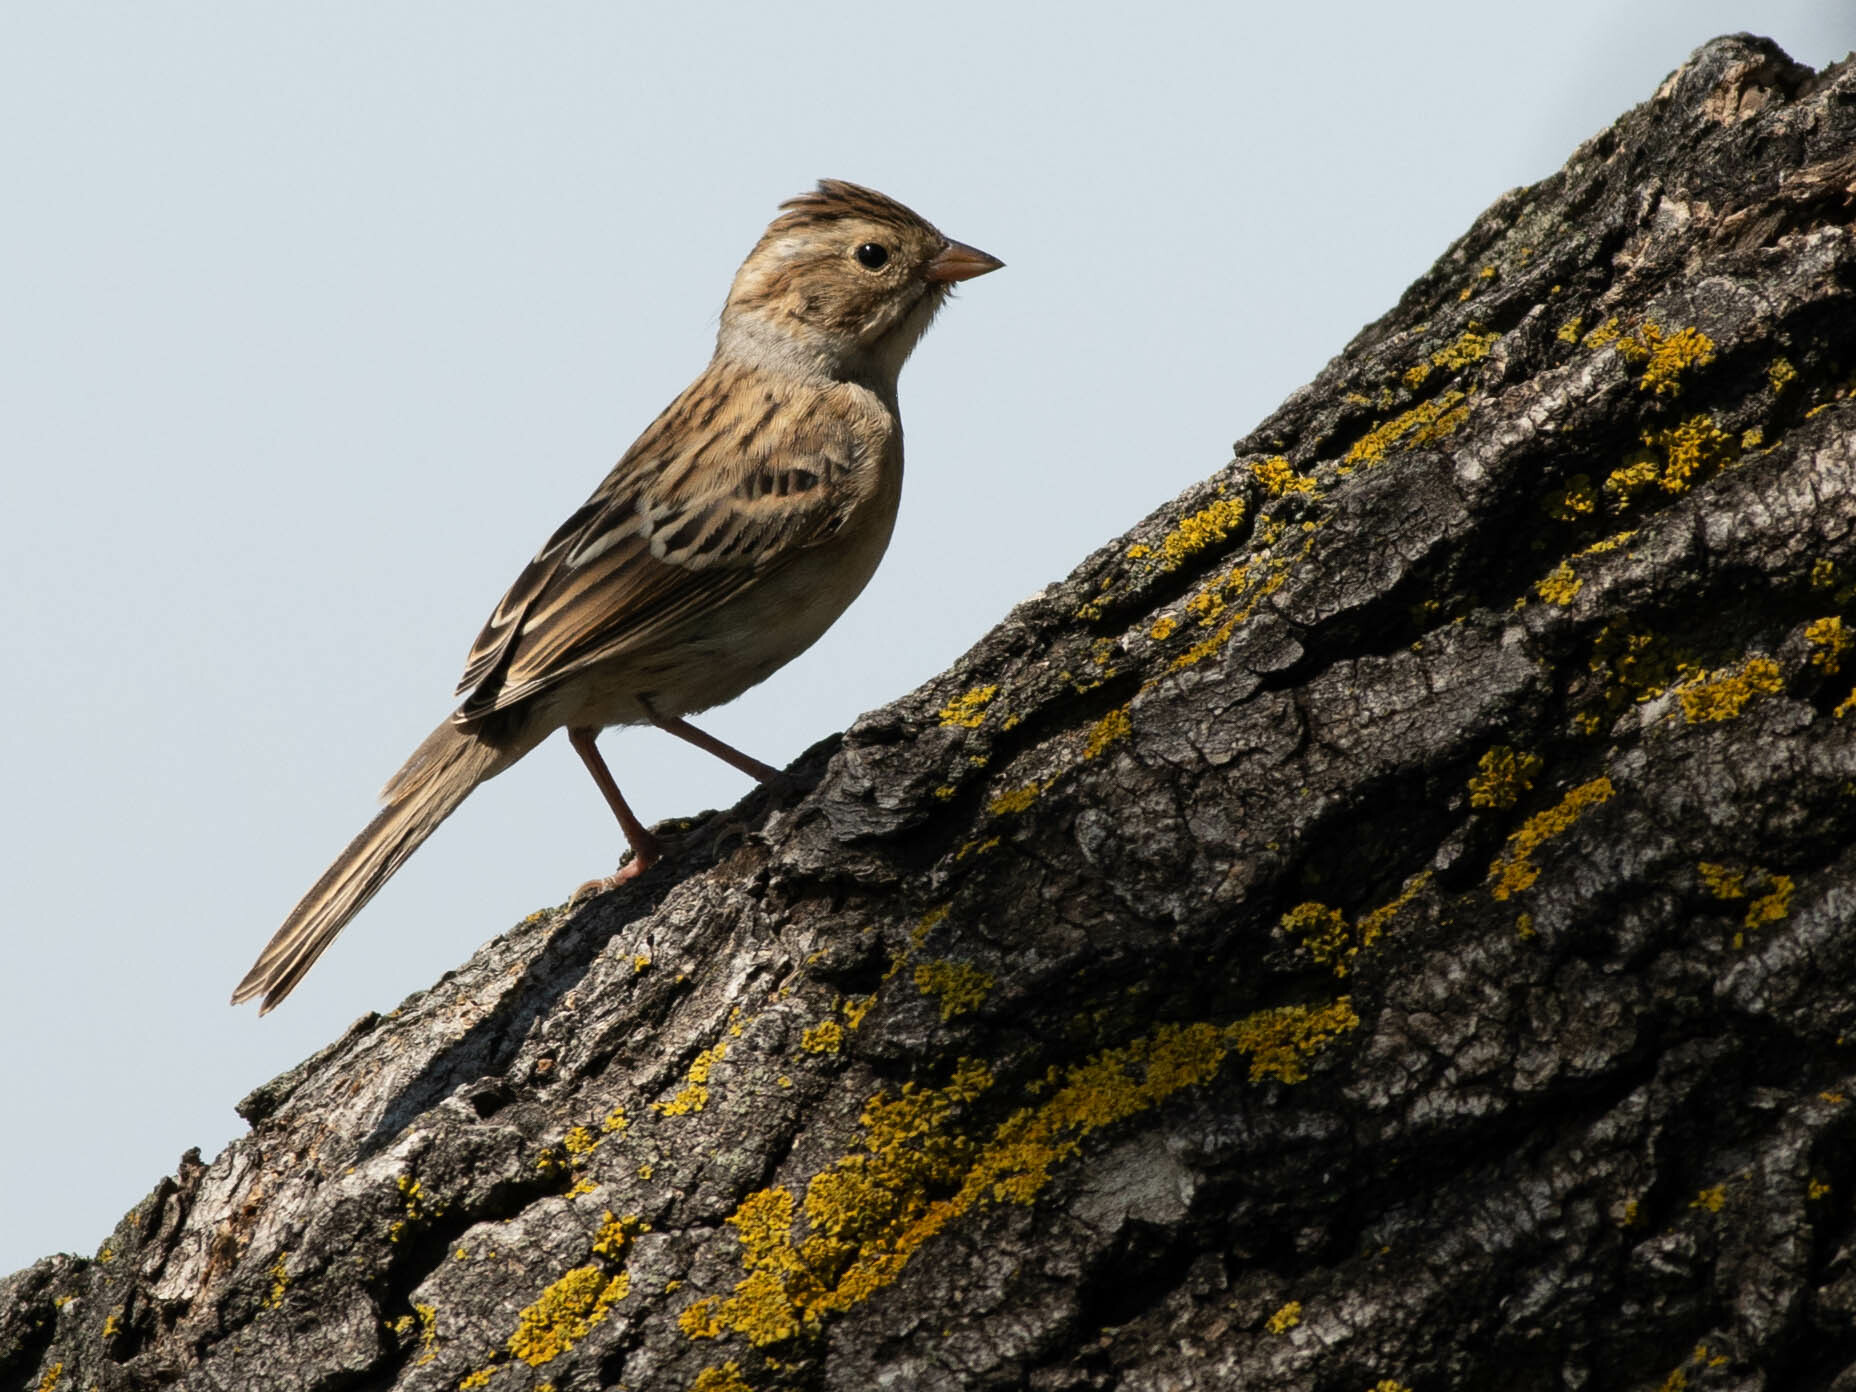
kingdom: Animalia
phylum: Chordata
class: Aves
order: Passeriformes
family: Passerellidae
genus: Spizella
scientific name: Spizella pallida
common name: Clay-colored sparrow
